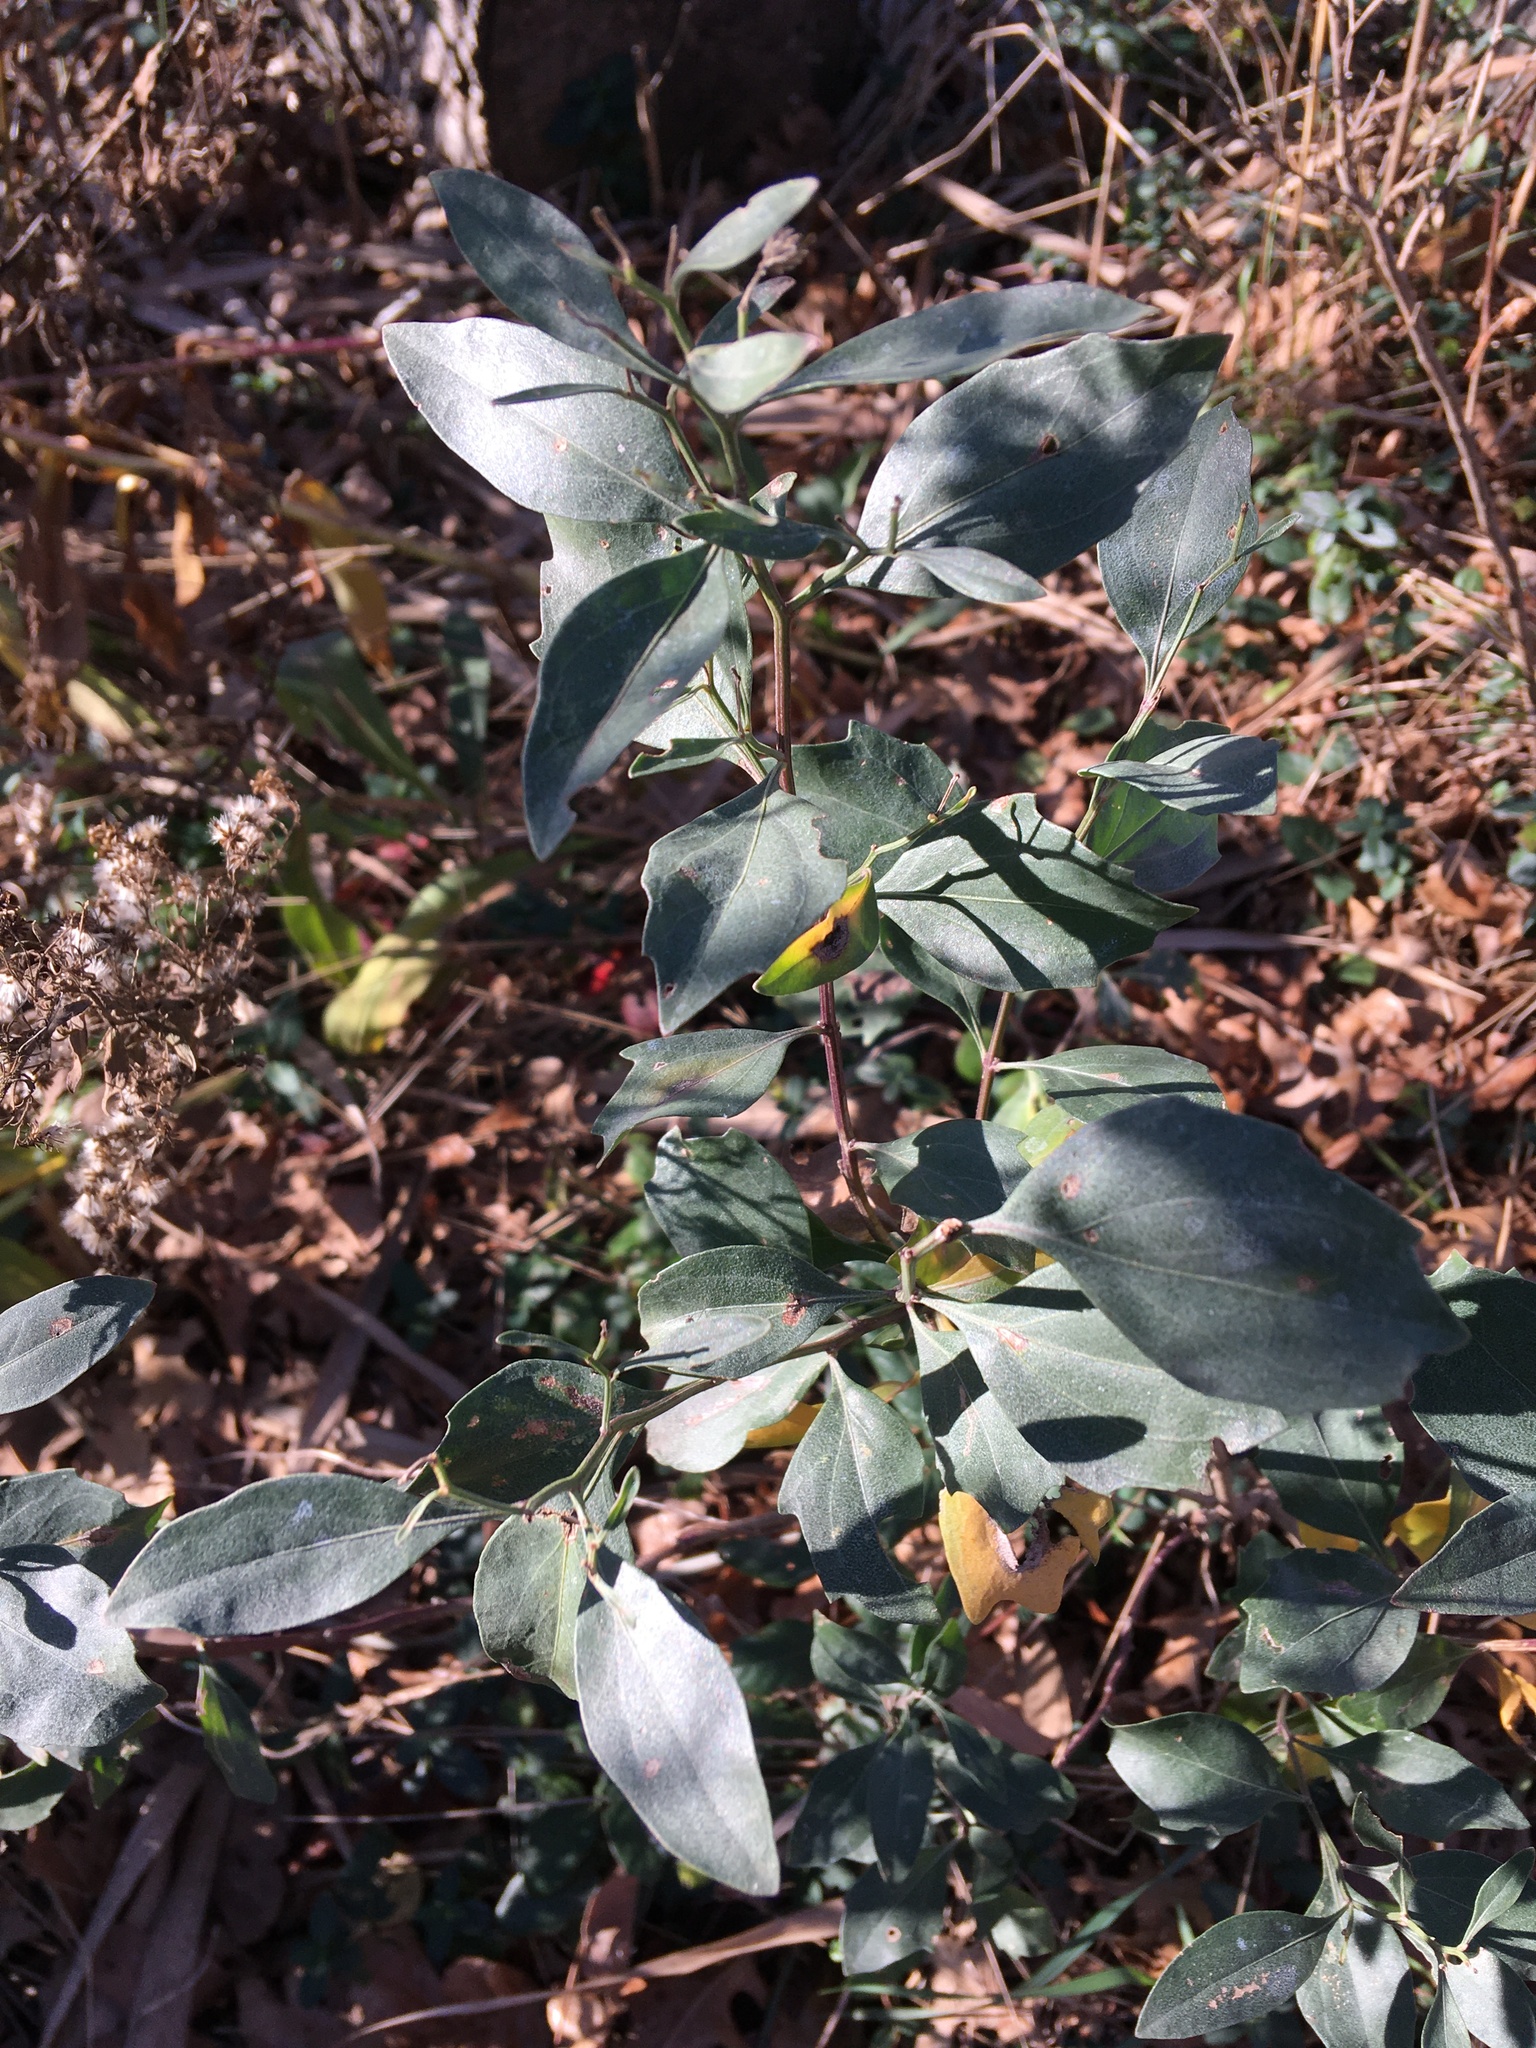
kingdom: Plantae
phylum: Tracheophyta
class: Magnoliopsida
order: Asterales
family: Asteraceae
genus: Baccharis
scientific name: Baccharis halimifolia
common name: Eastern baccharis
